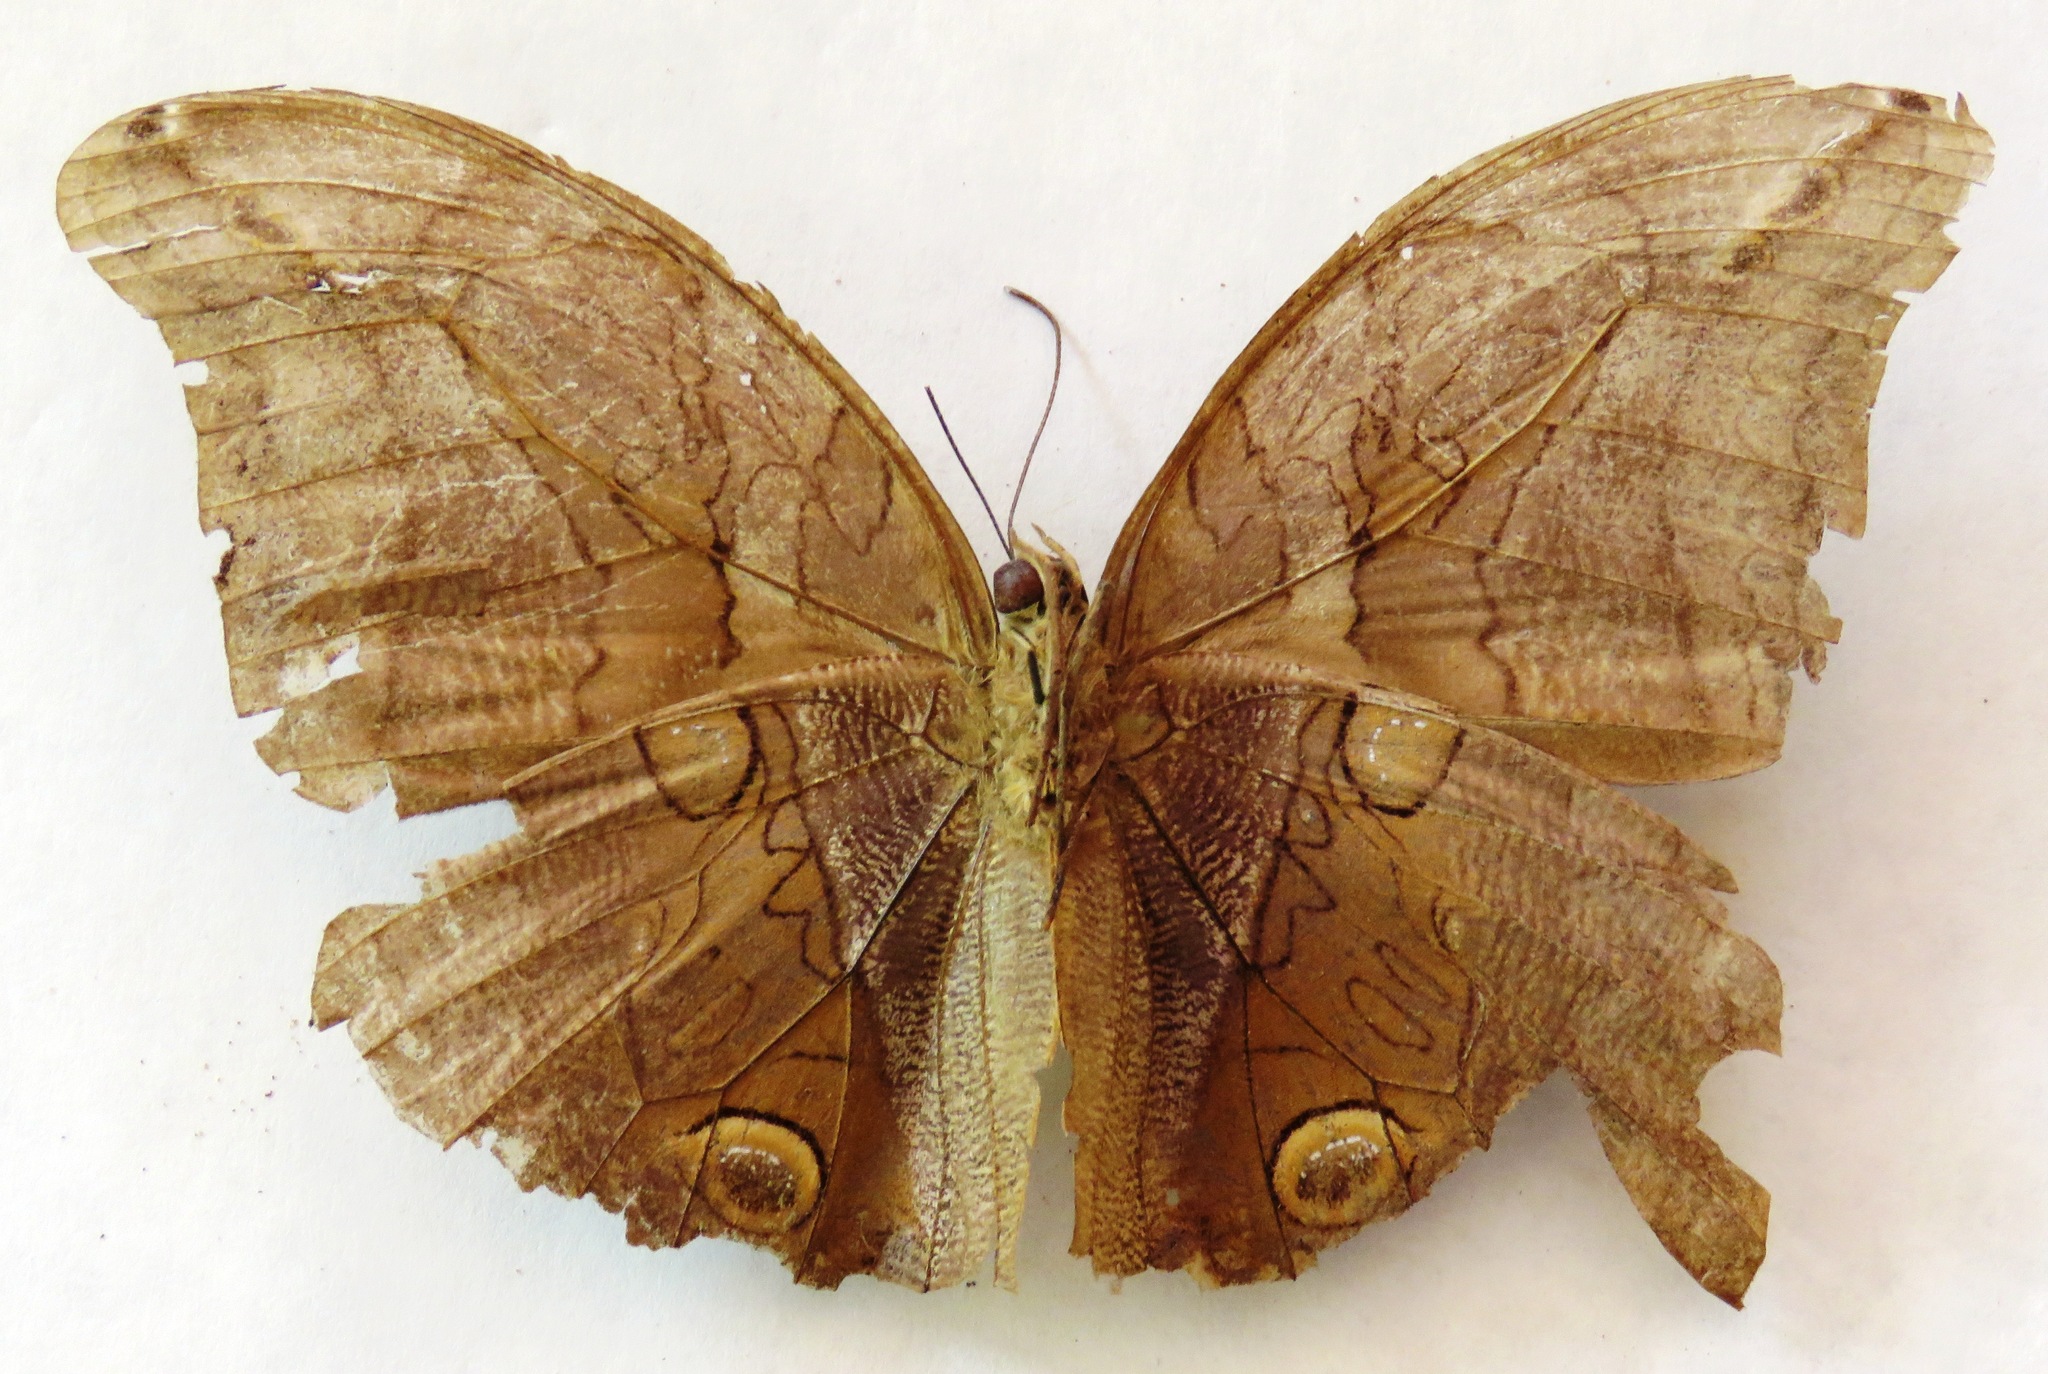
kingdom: Animalia
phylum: Arthropoda
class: Insecta
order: Lepidoptera
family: Nymphalidae
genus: Eryphanis
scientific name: Eryphanis lycomedon
